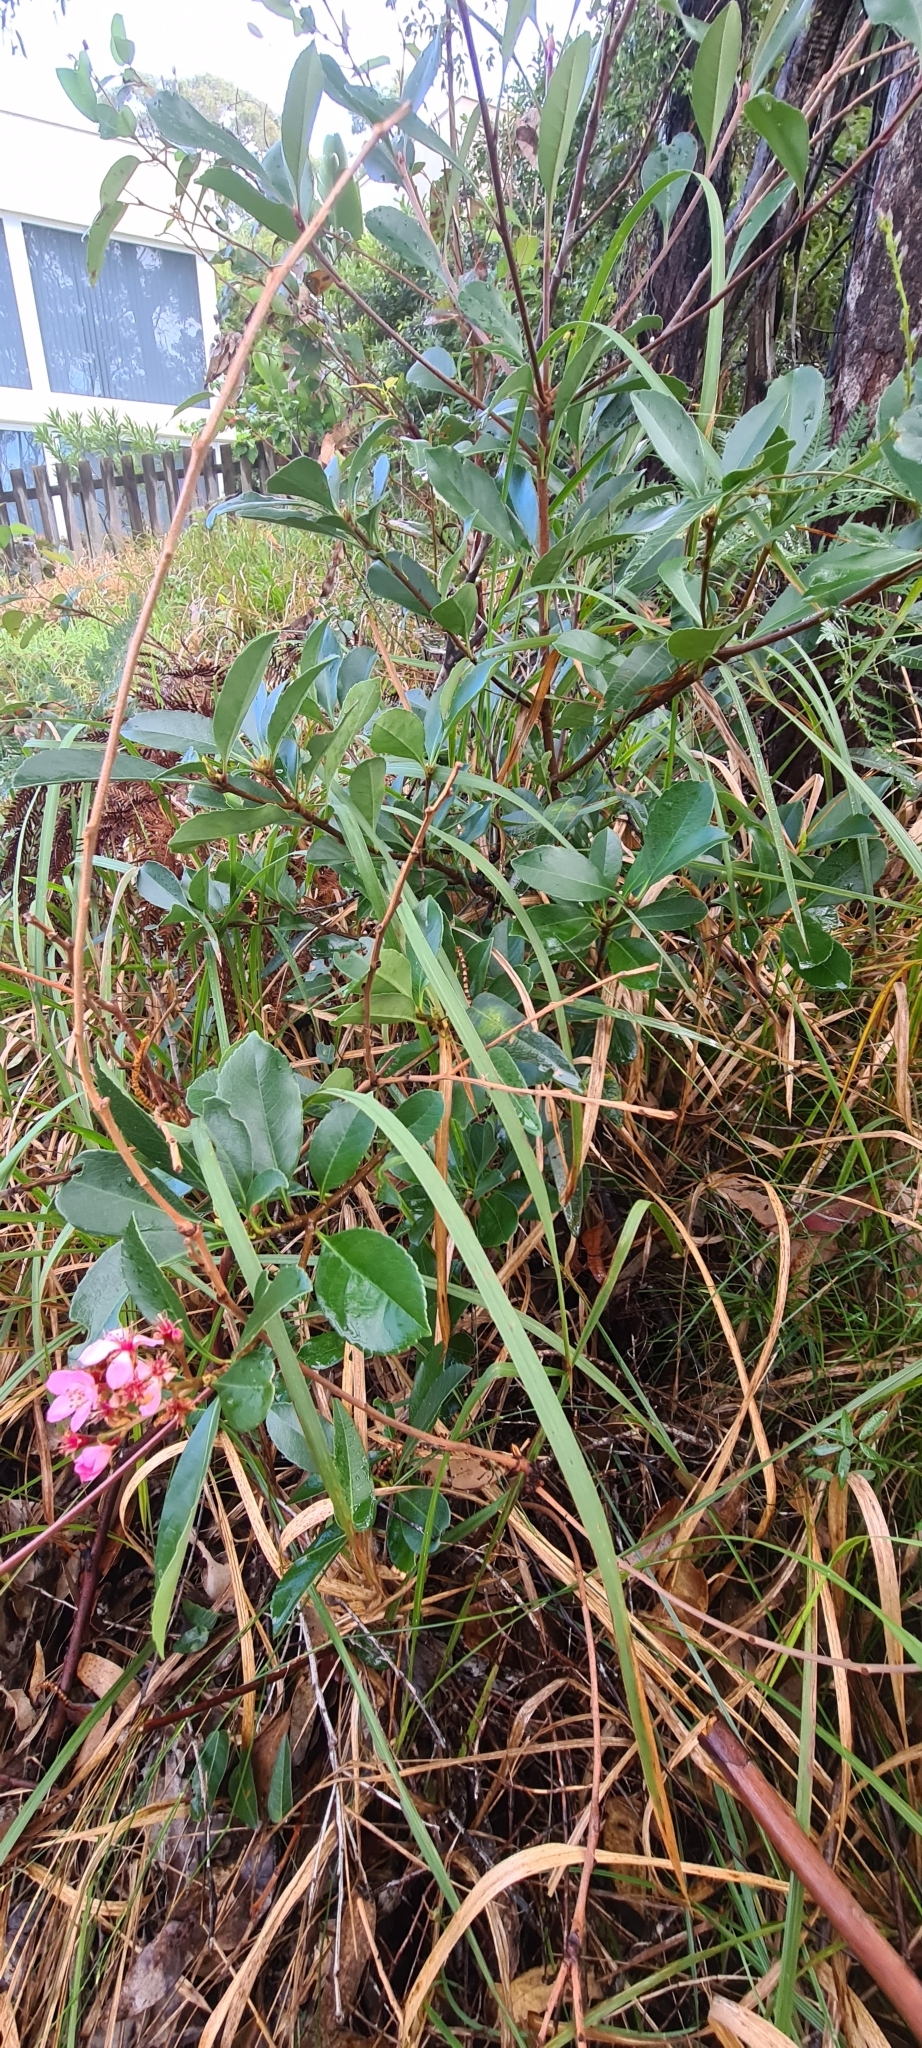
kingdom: Plantae
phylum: Tracheophyta
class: Magnoliopsida
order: Rosales
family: Rosaceae
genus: Rhaphiolepis
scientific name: Rhaphiolepis indica
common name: India-hawthorn
